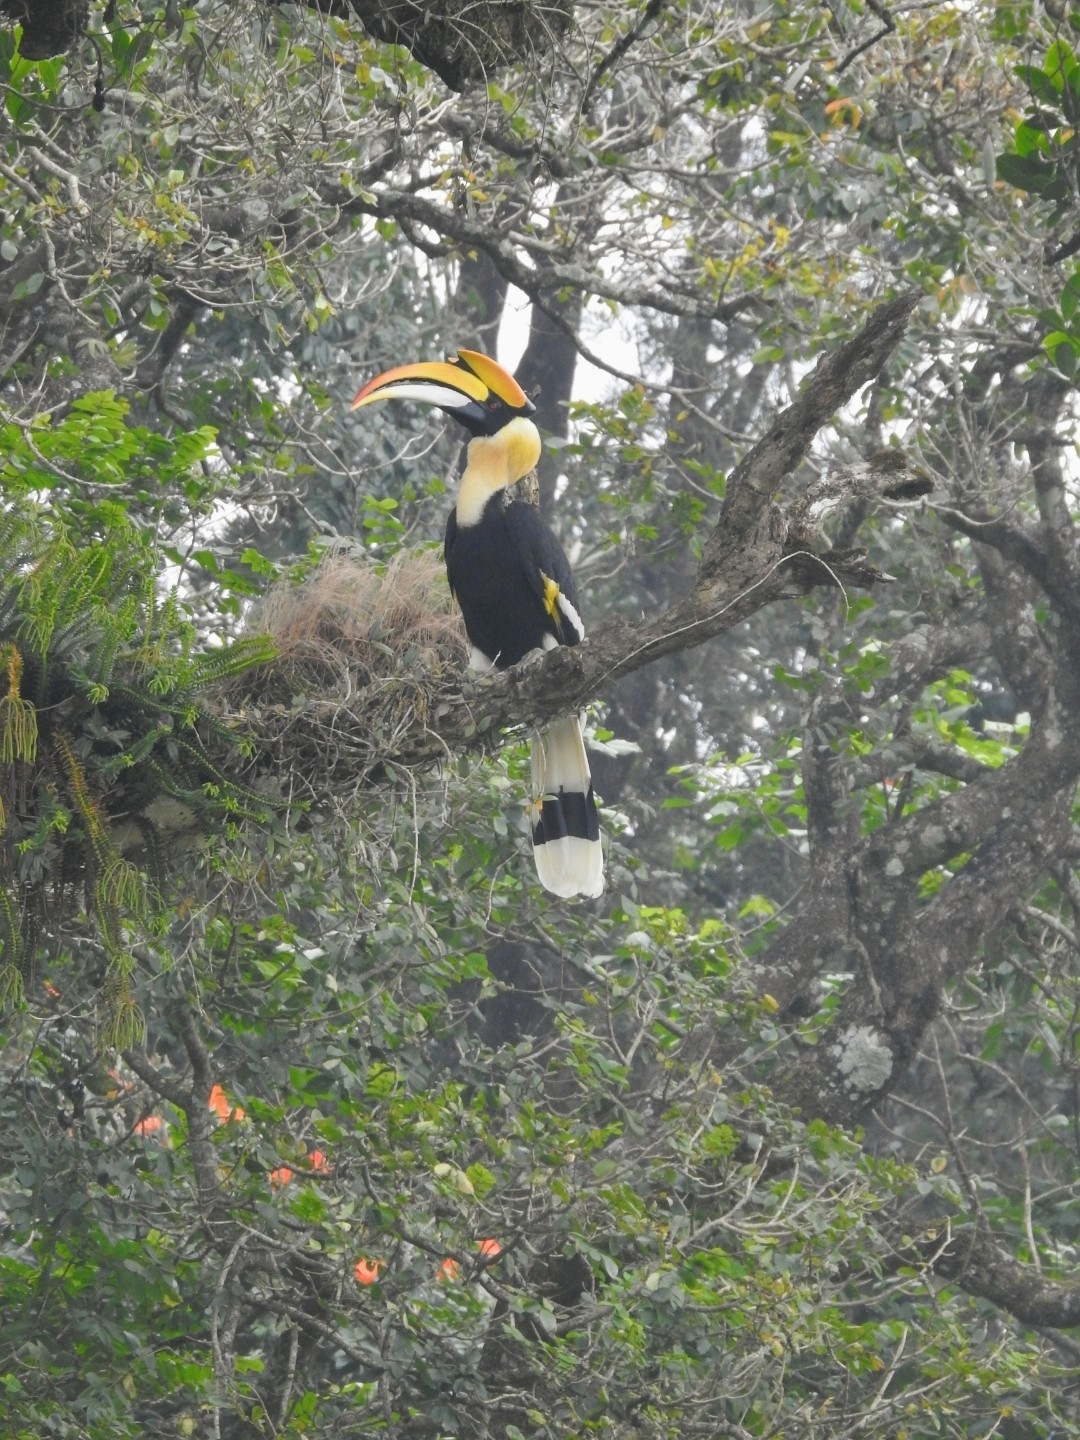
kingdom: Animalia
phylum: Chordata
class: Aves
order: Bucerotiformes
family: Bucerotidae
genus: Buceros
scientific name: Buceros bicornis
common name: Great hornbill
